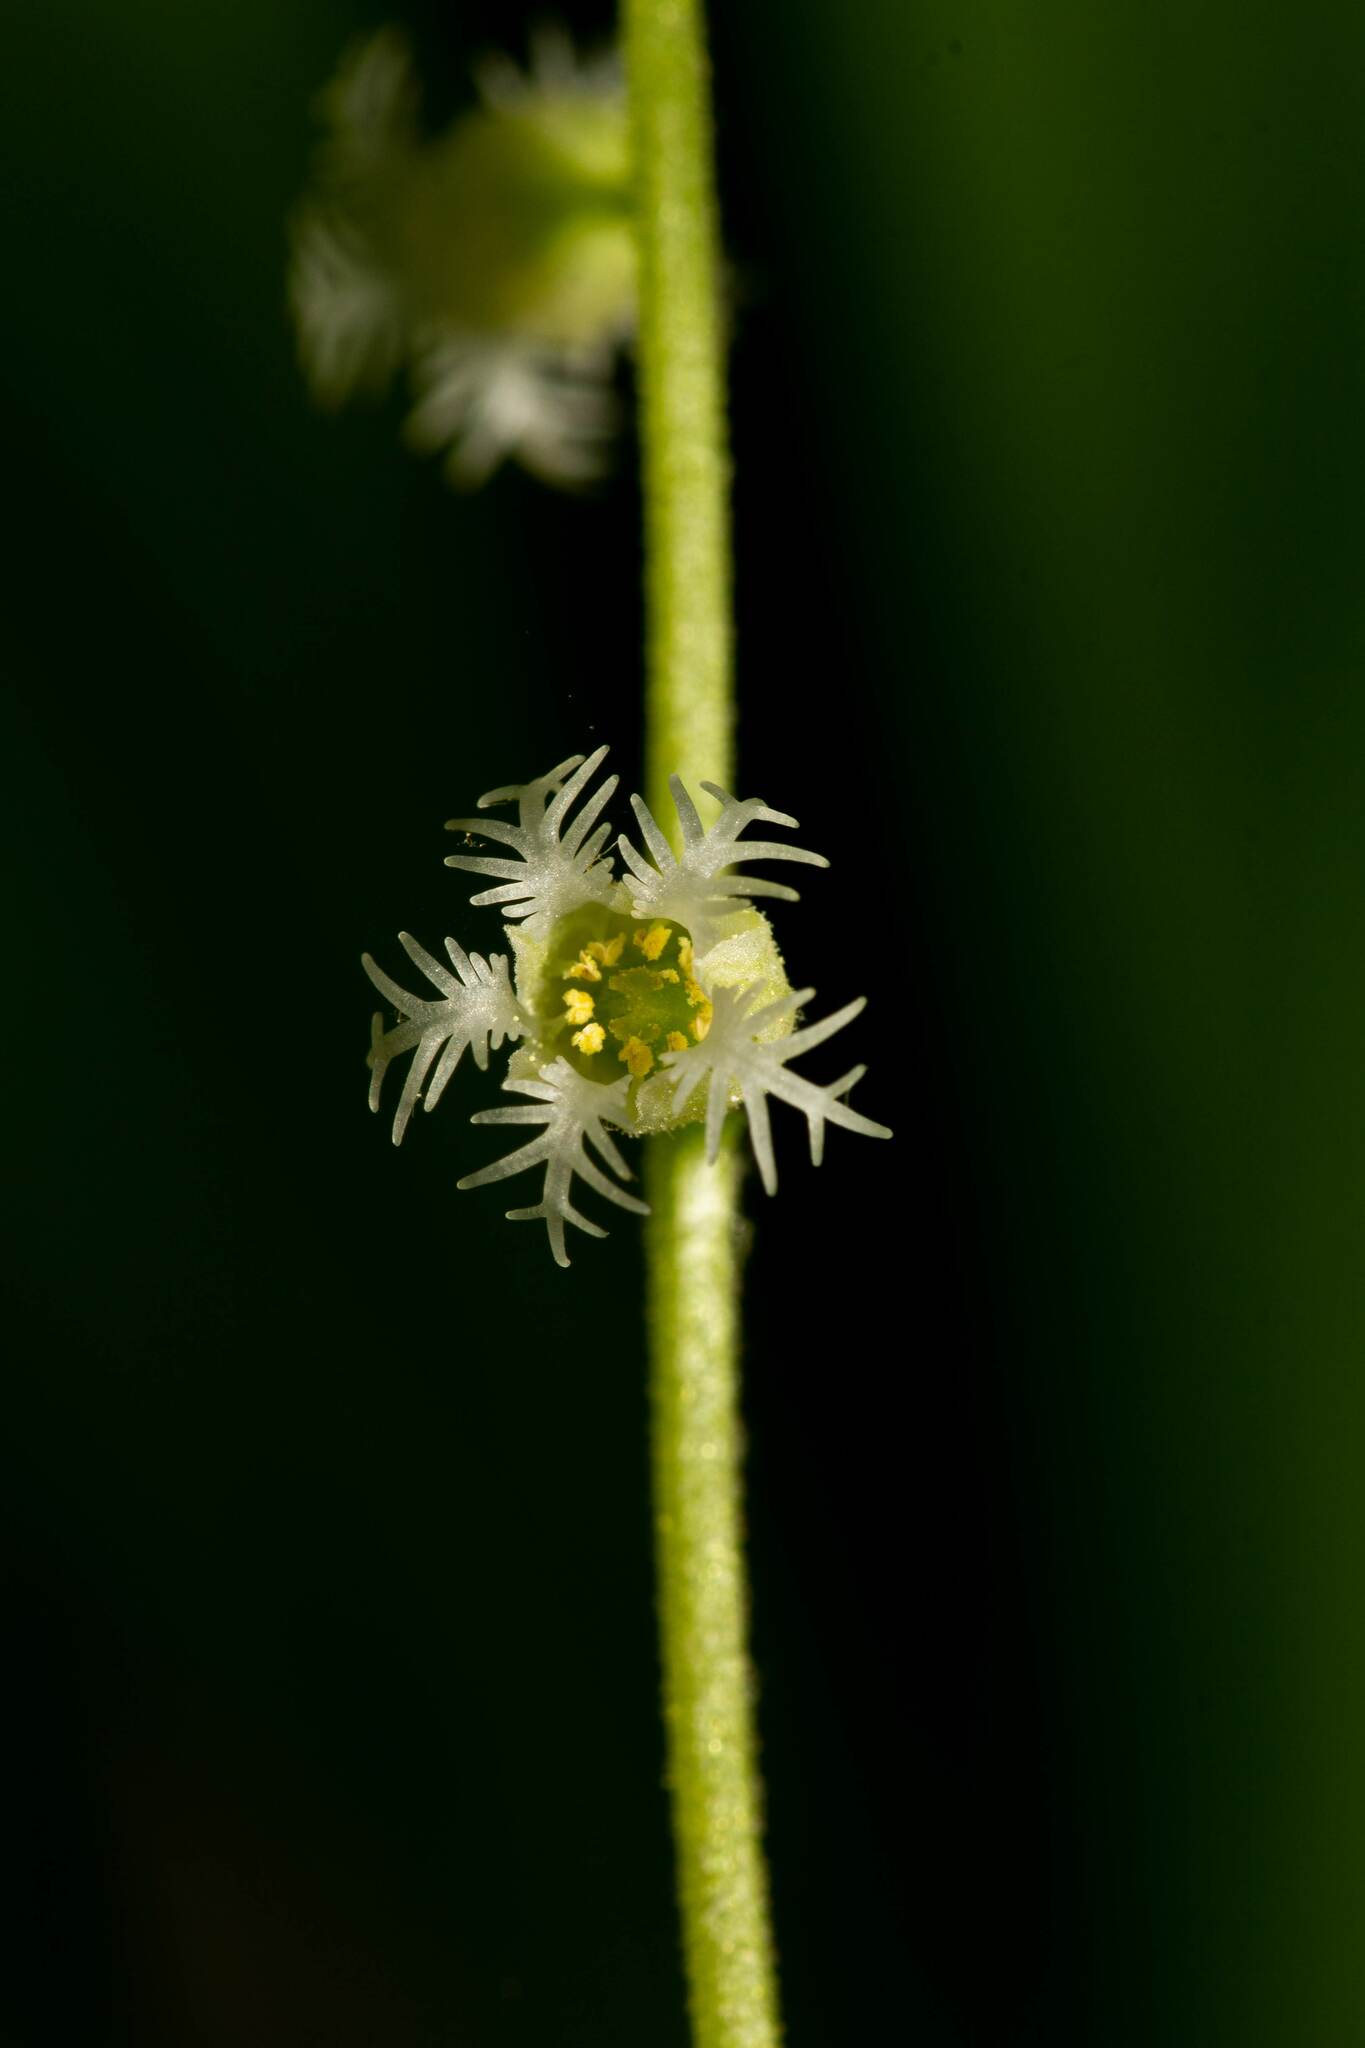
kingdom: Plantae
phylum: Tracheophyta
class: Magnoliopsida
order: Saxifragales
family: Saxifragaceae
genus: Mitella
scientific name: Mitella diphylla
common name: Coolwort
